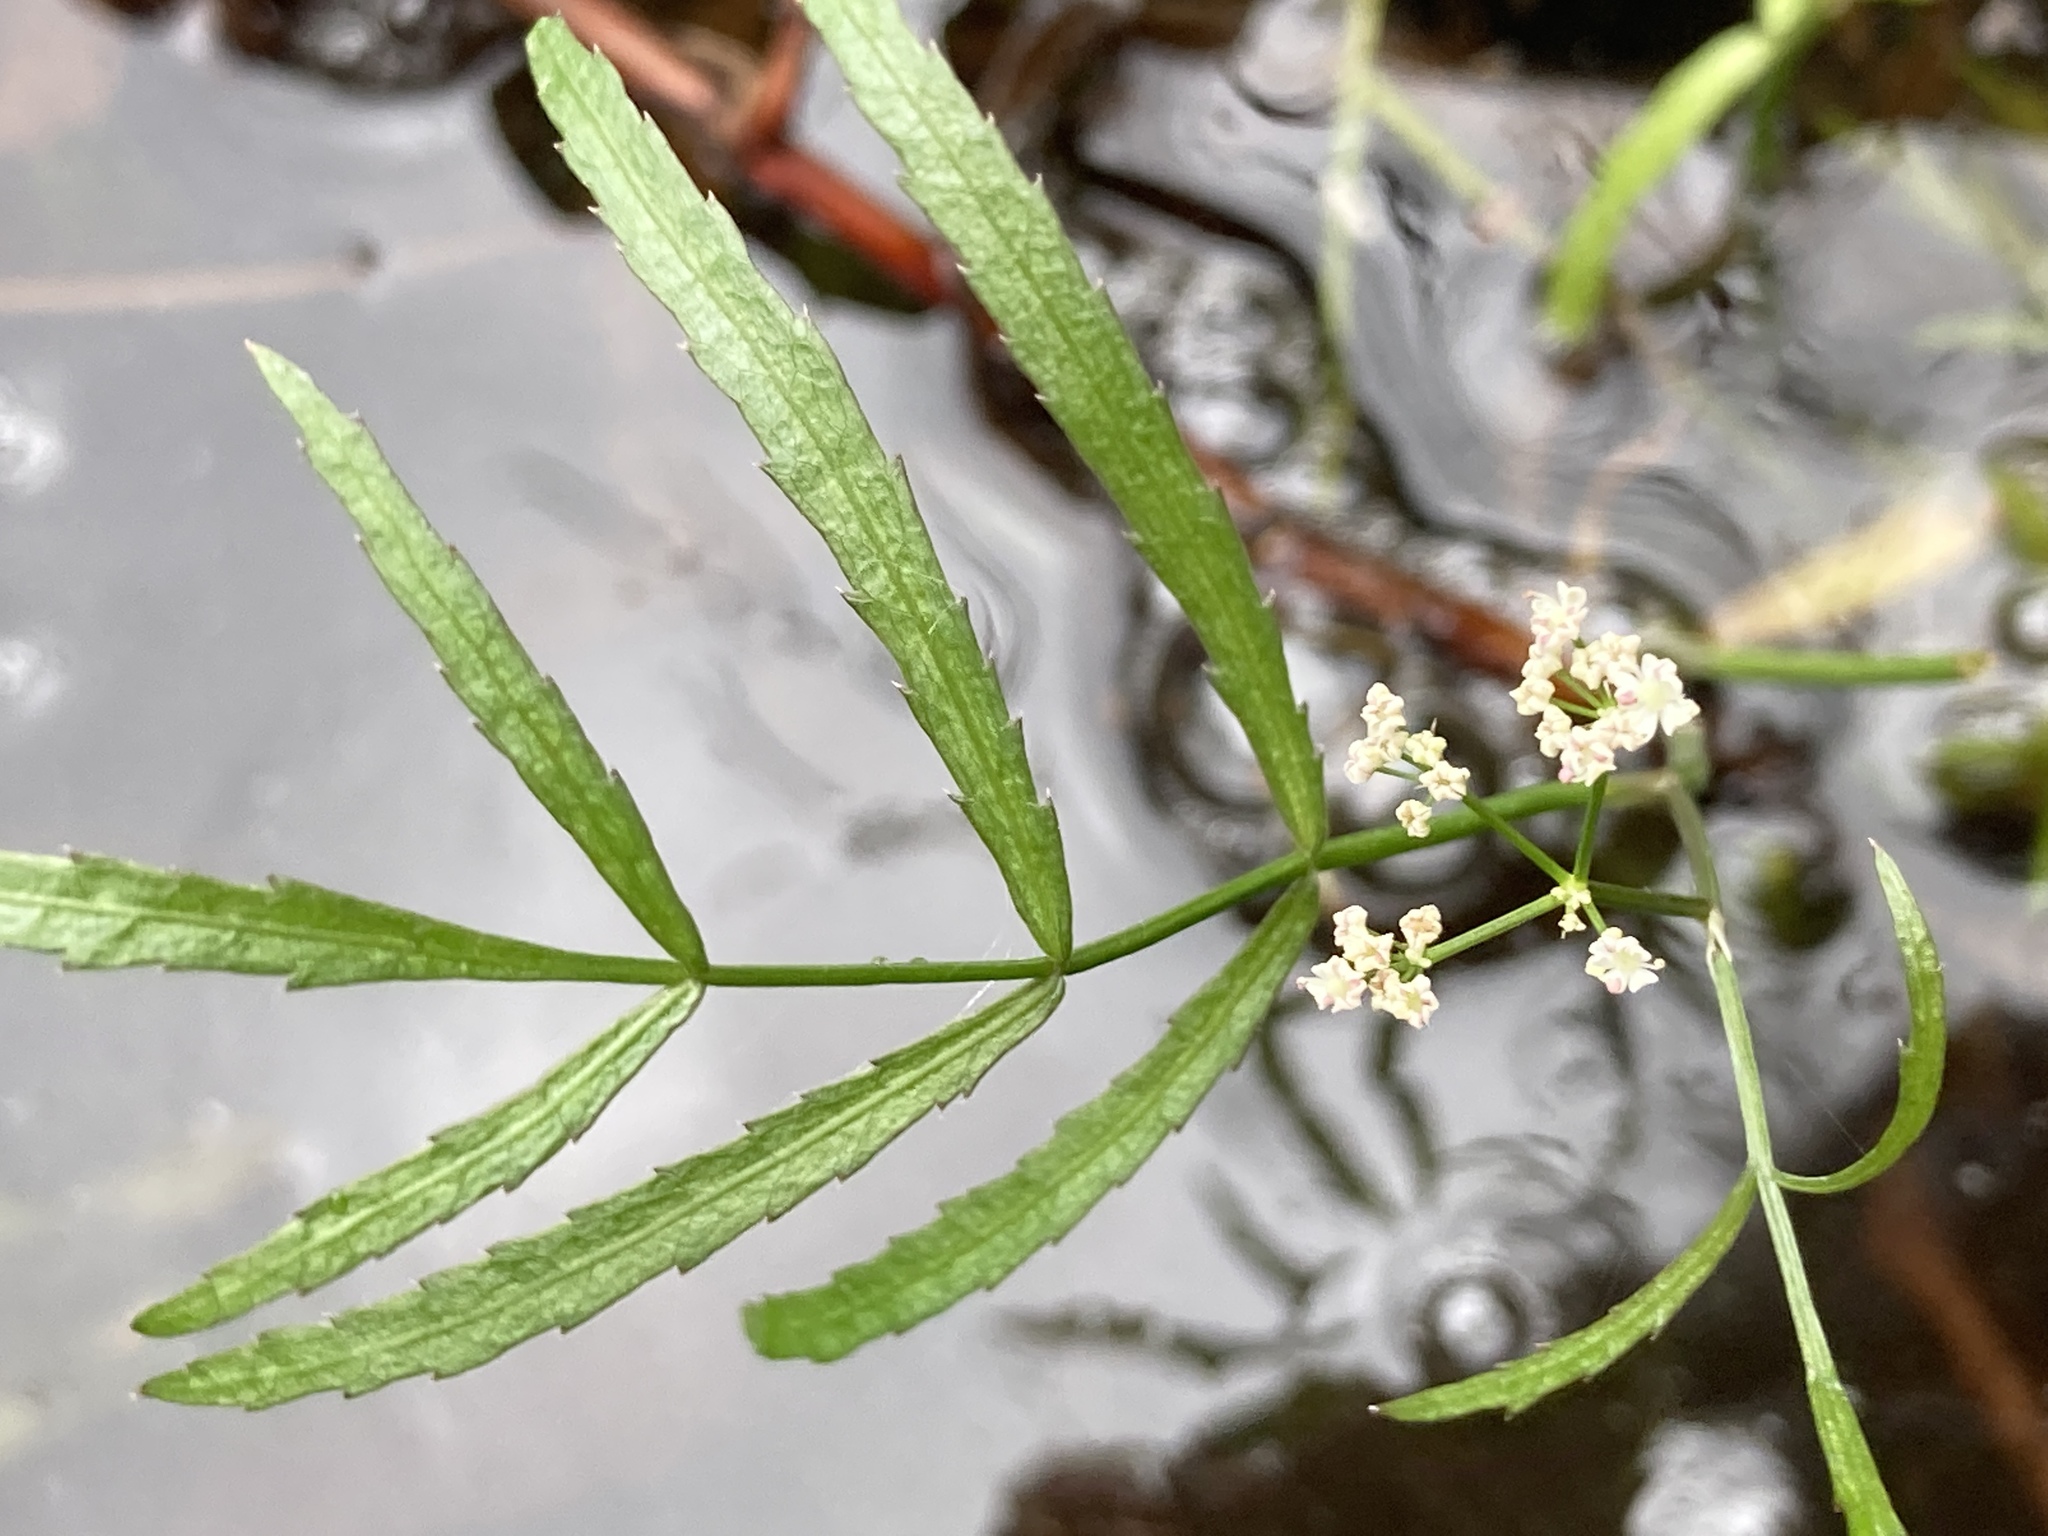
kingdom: Plantae
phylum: Tracheophyta
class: Magnoliopsida
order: Apiales
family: Apiaceae
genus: Sium
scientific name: Sium suave
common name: Hemlock water-parsnip
